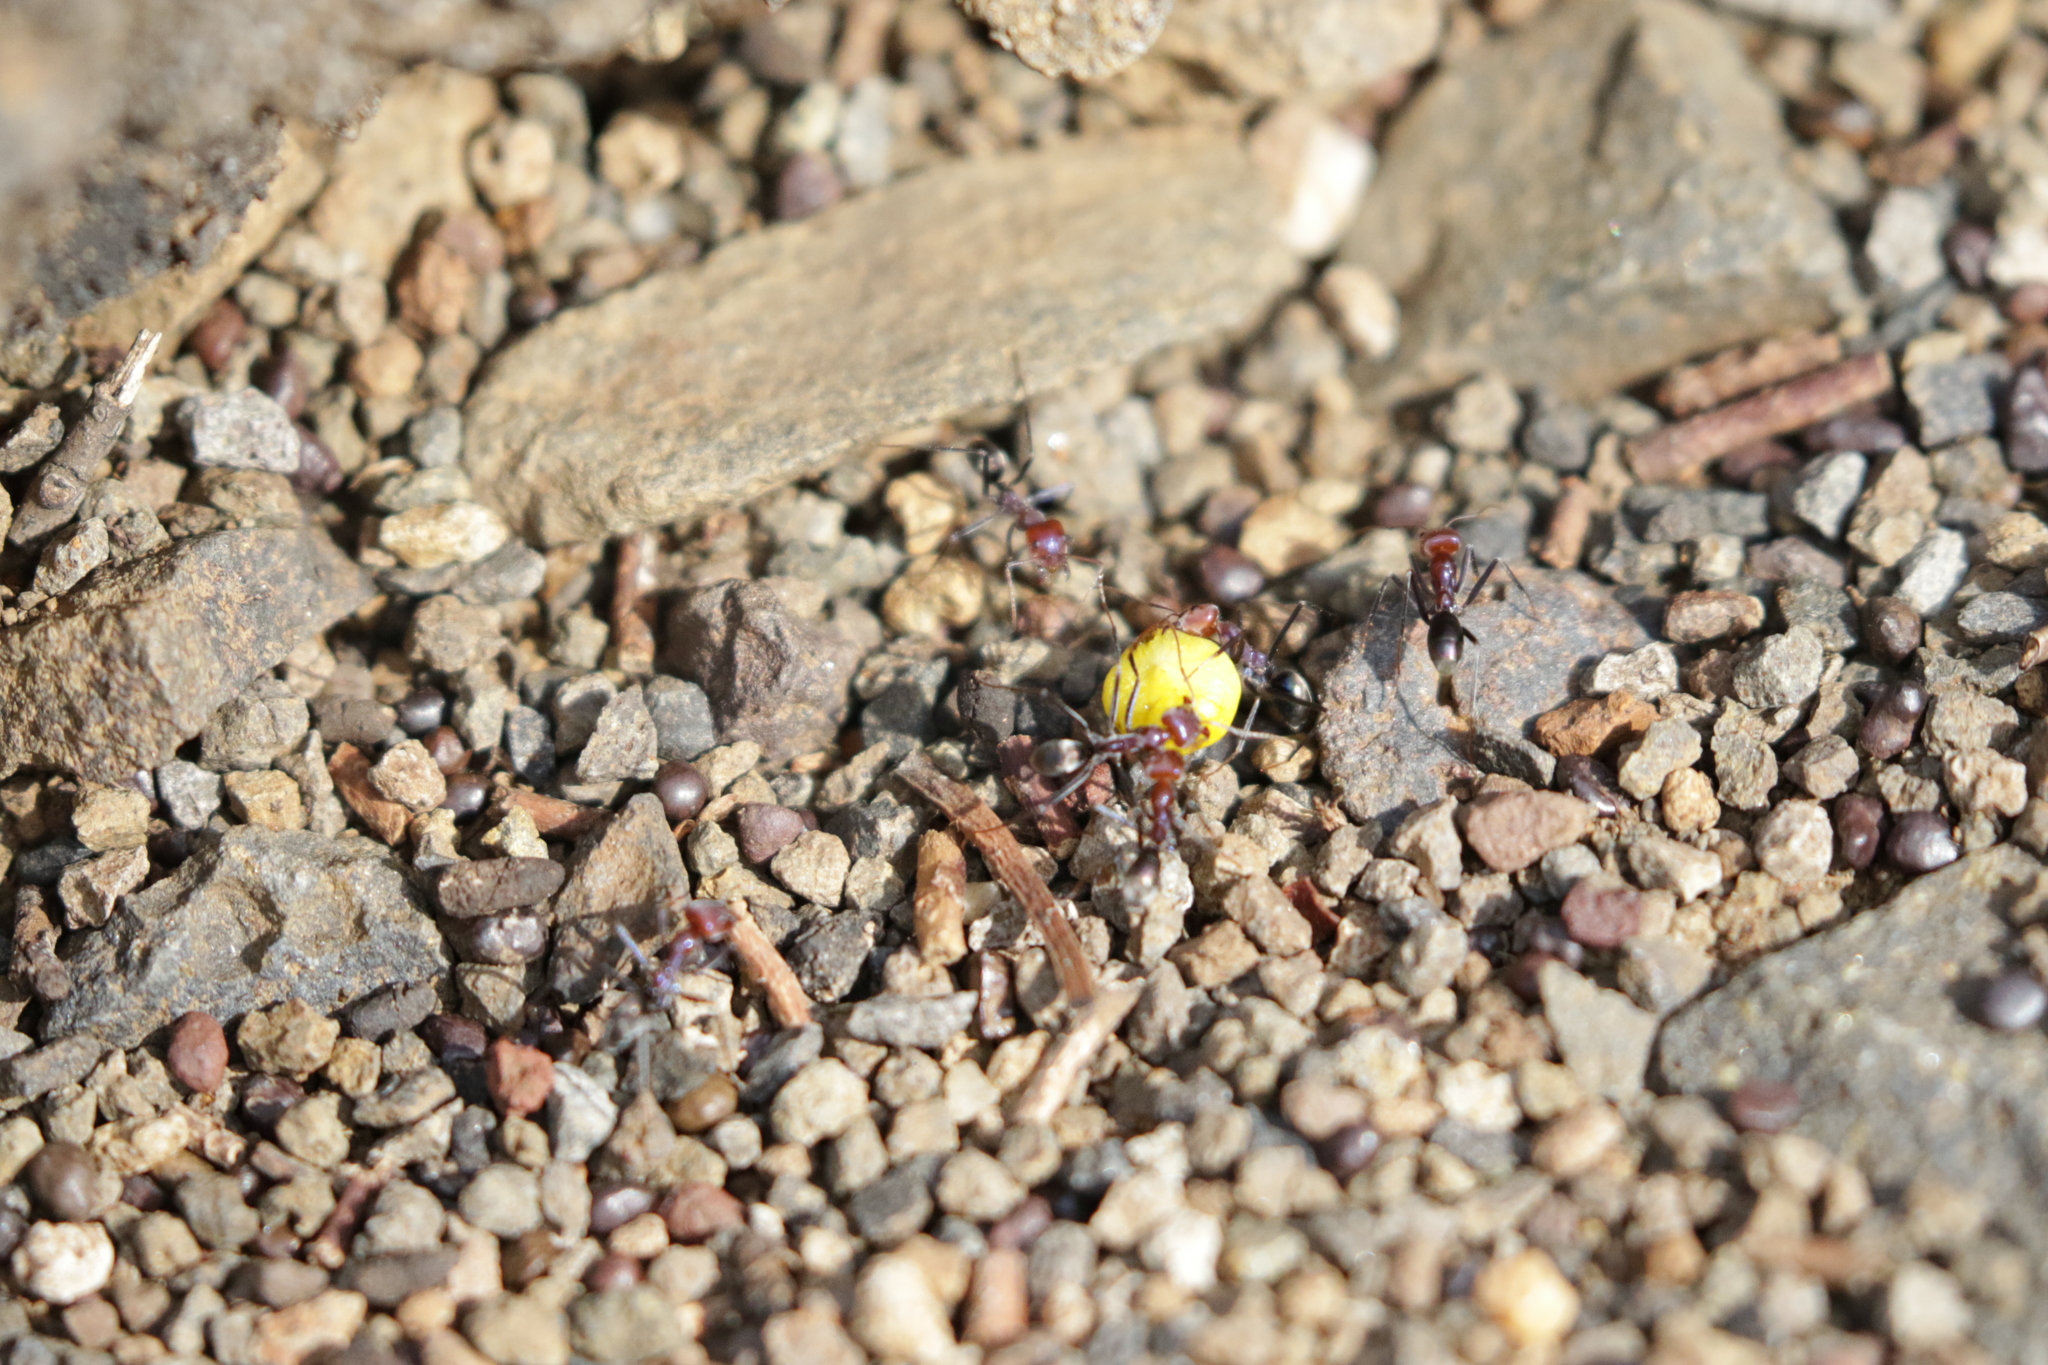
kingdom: Animalia
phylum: Arthropoda
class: Insecta
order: Hymenoptera
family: Formicidae
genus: Iridomyrmex
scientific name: Iridomyrmex purpureus
